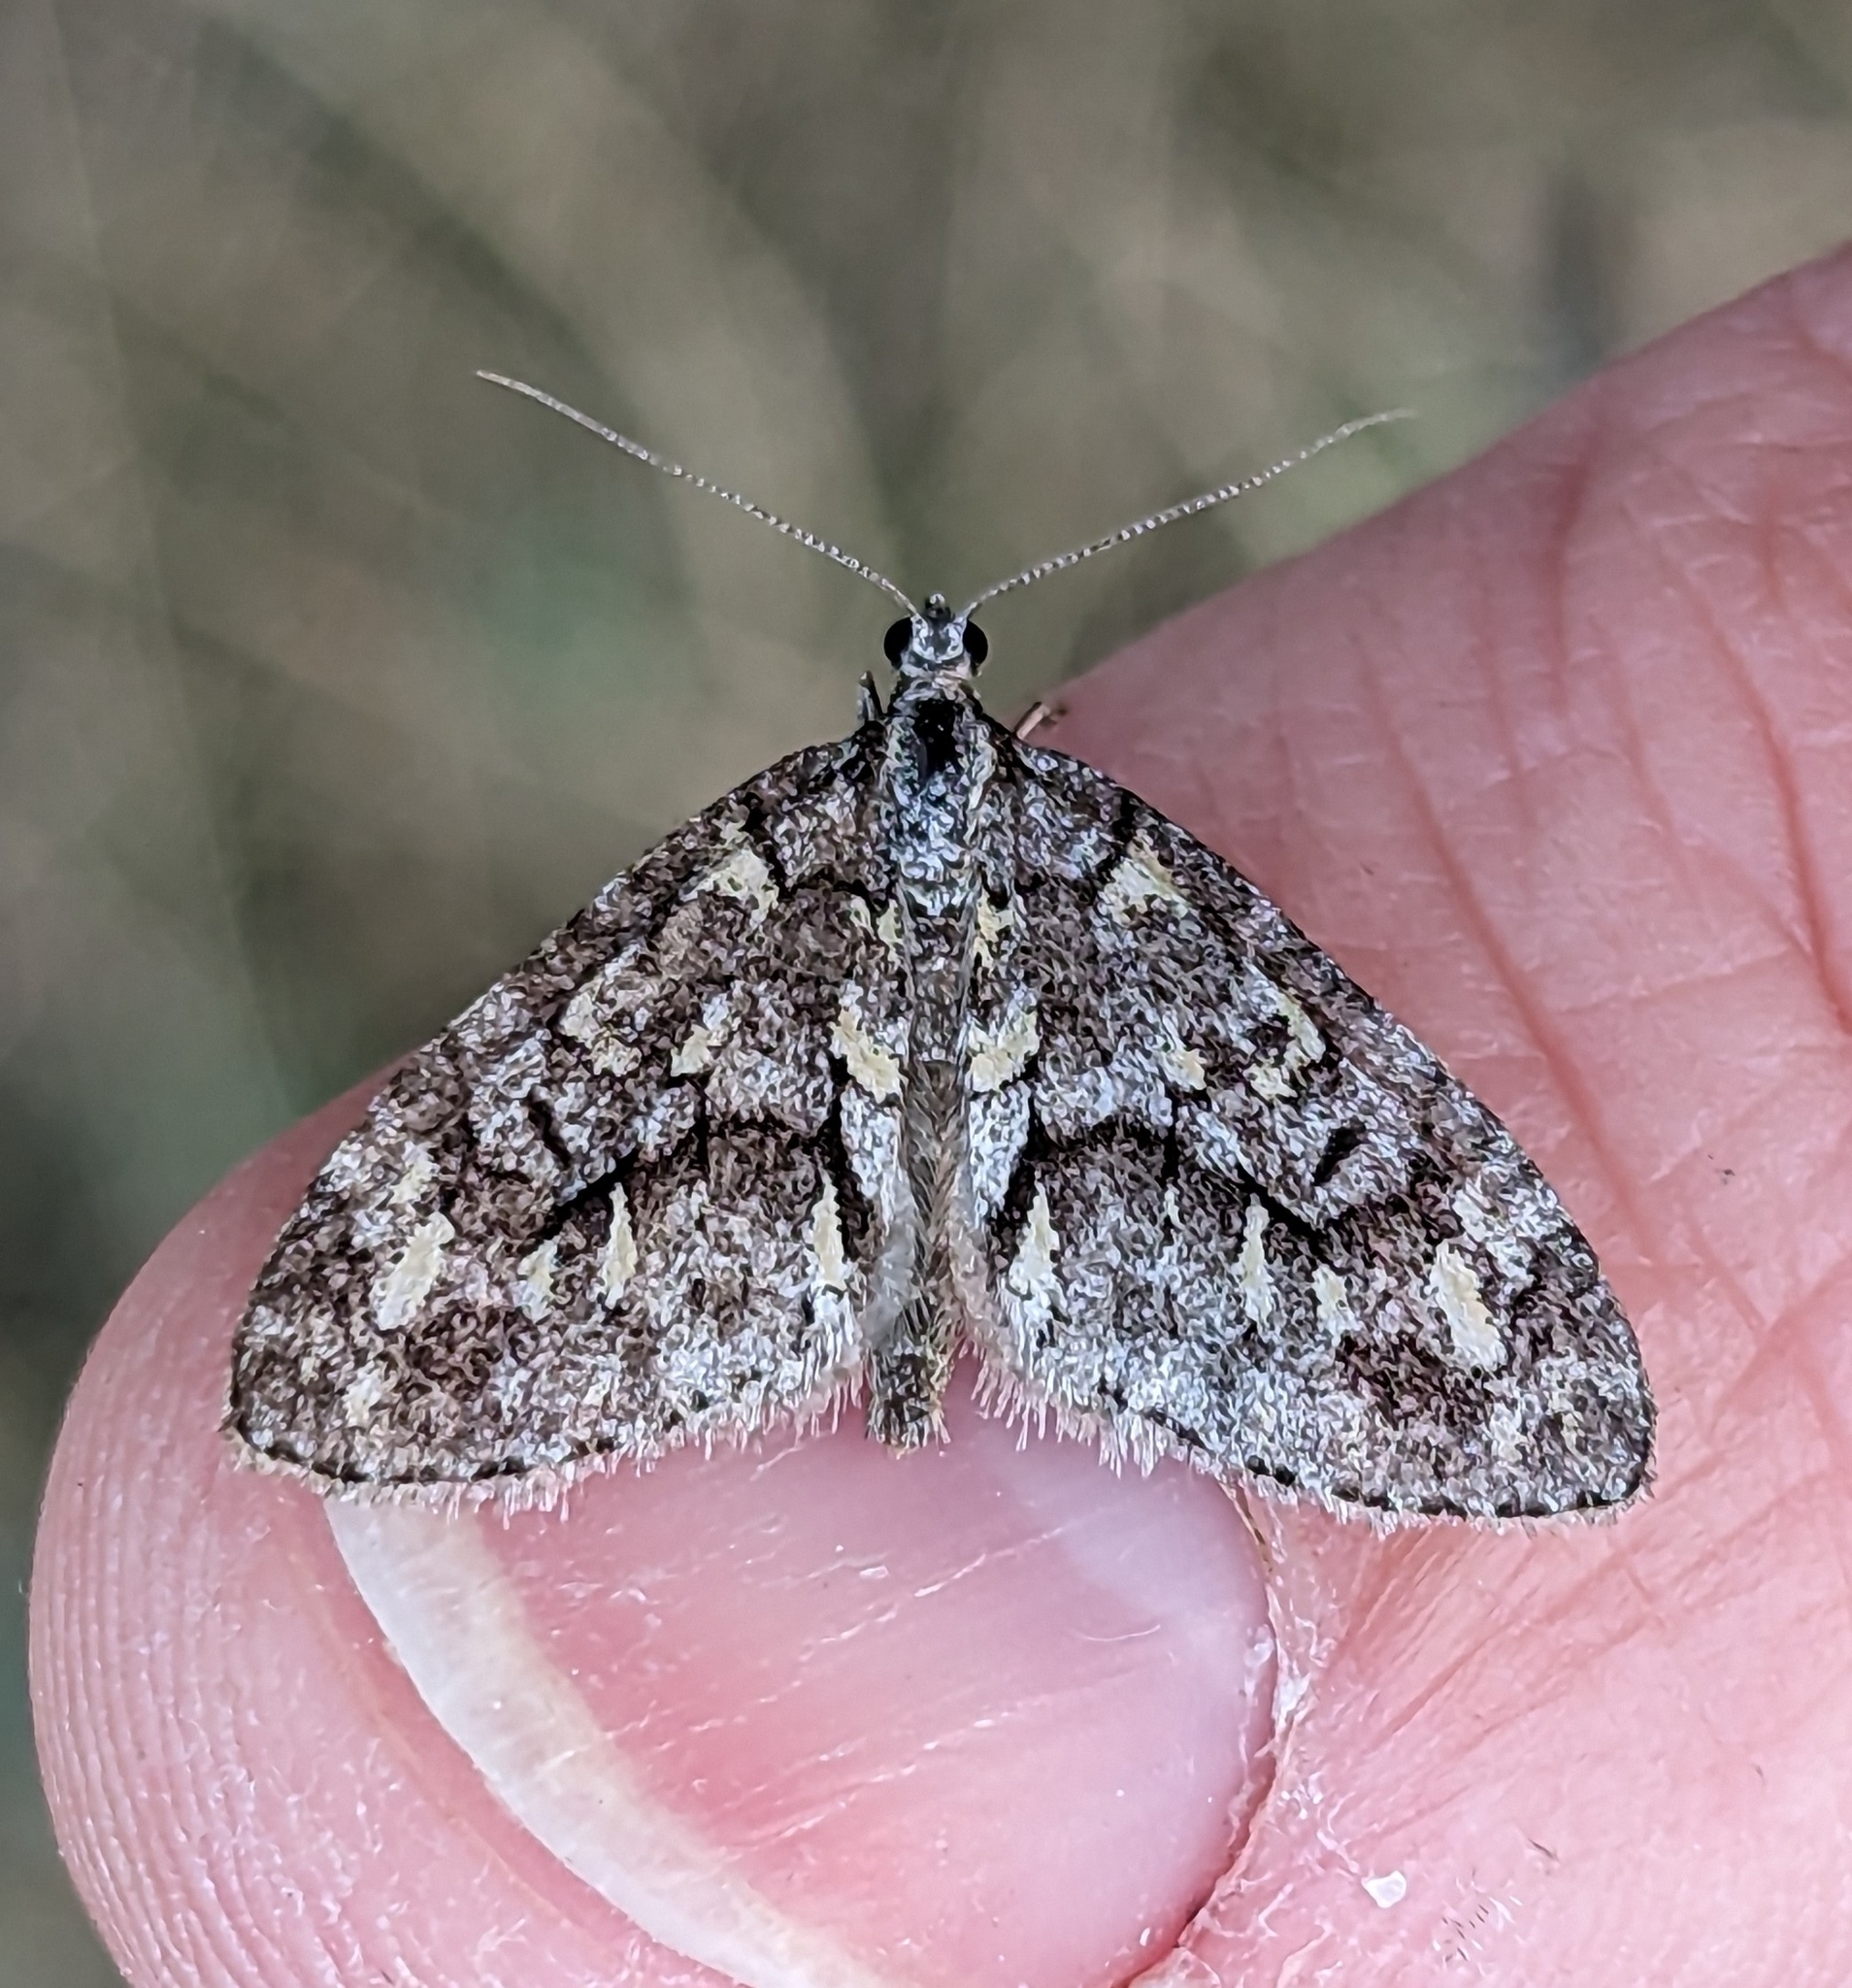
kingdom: Animalia
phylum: Arthropoda
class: Insecta
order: Lepidoptera
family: Geometridae
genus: Cladara
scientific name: Cladara limitaria
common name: Mottled gray carpet
